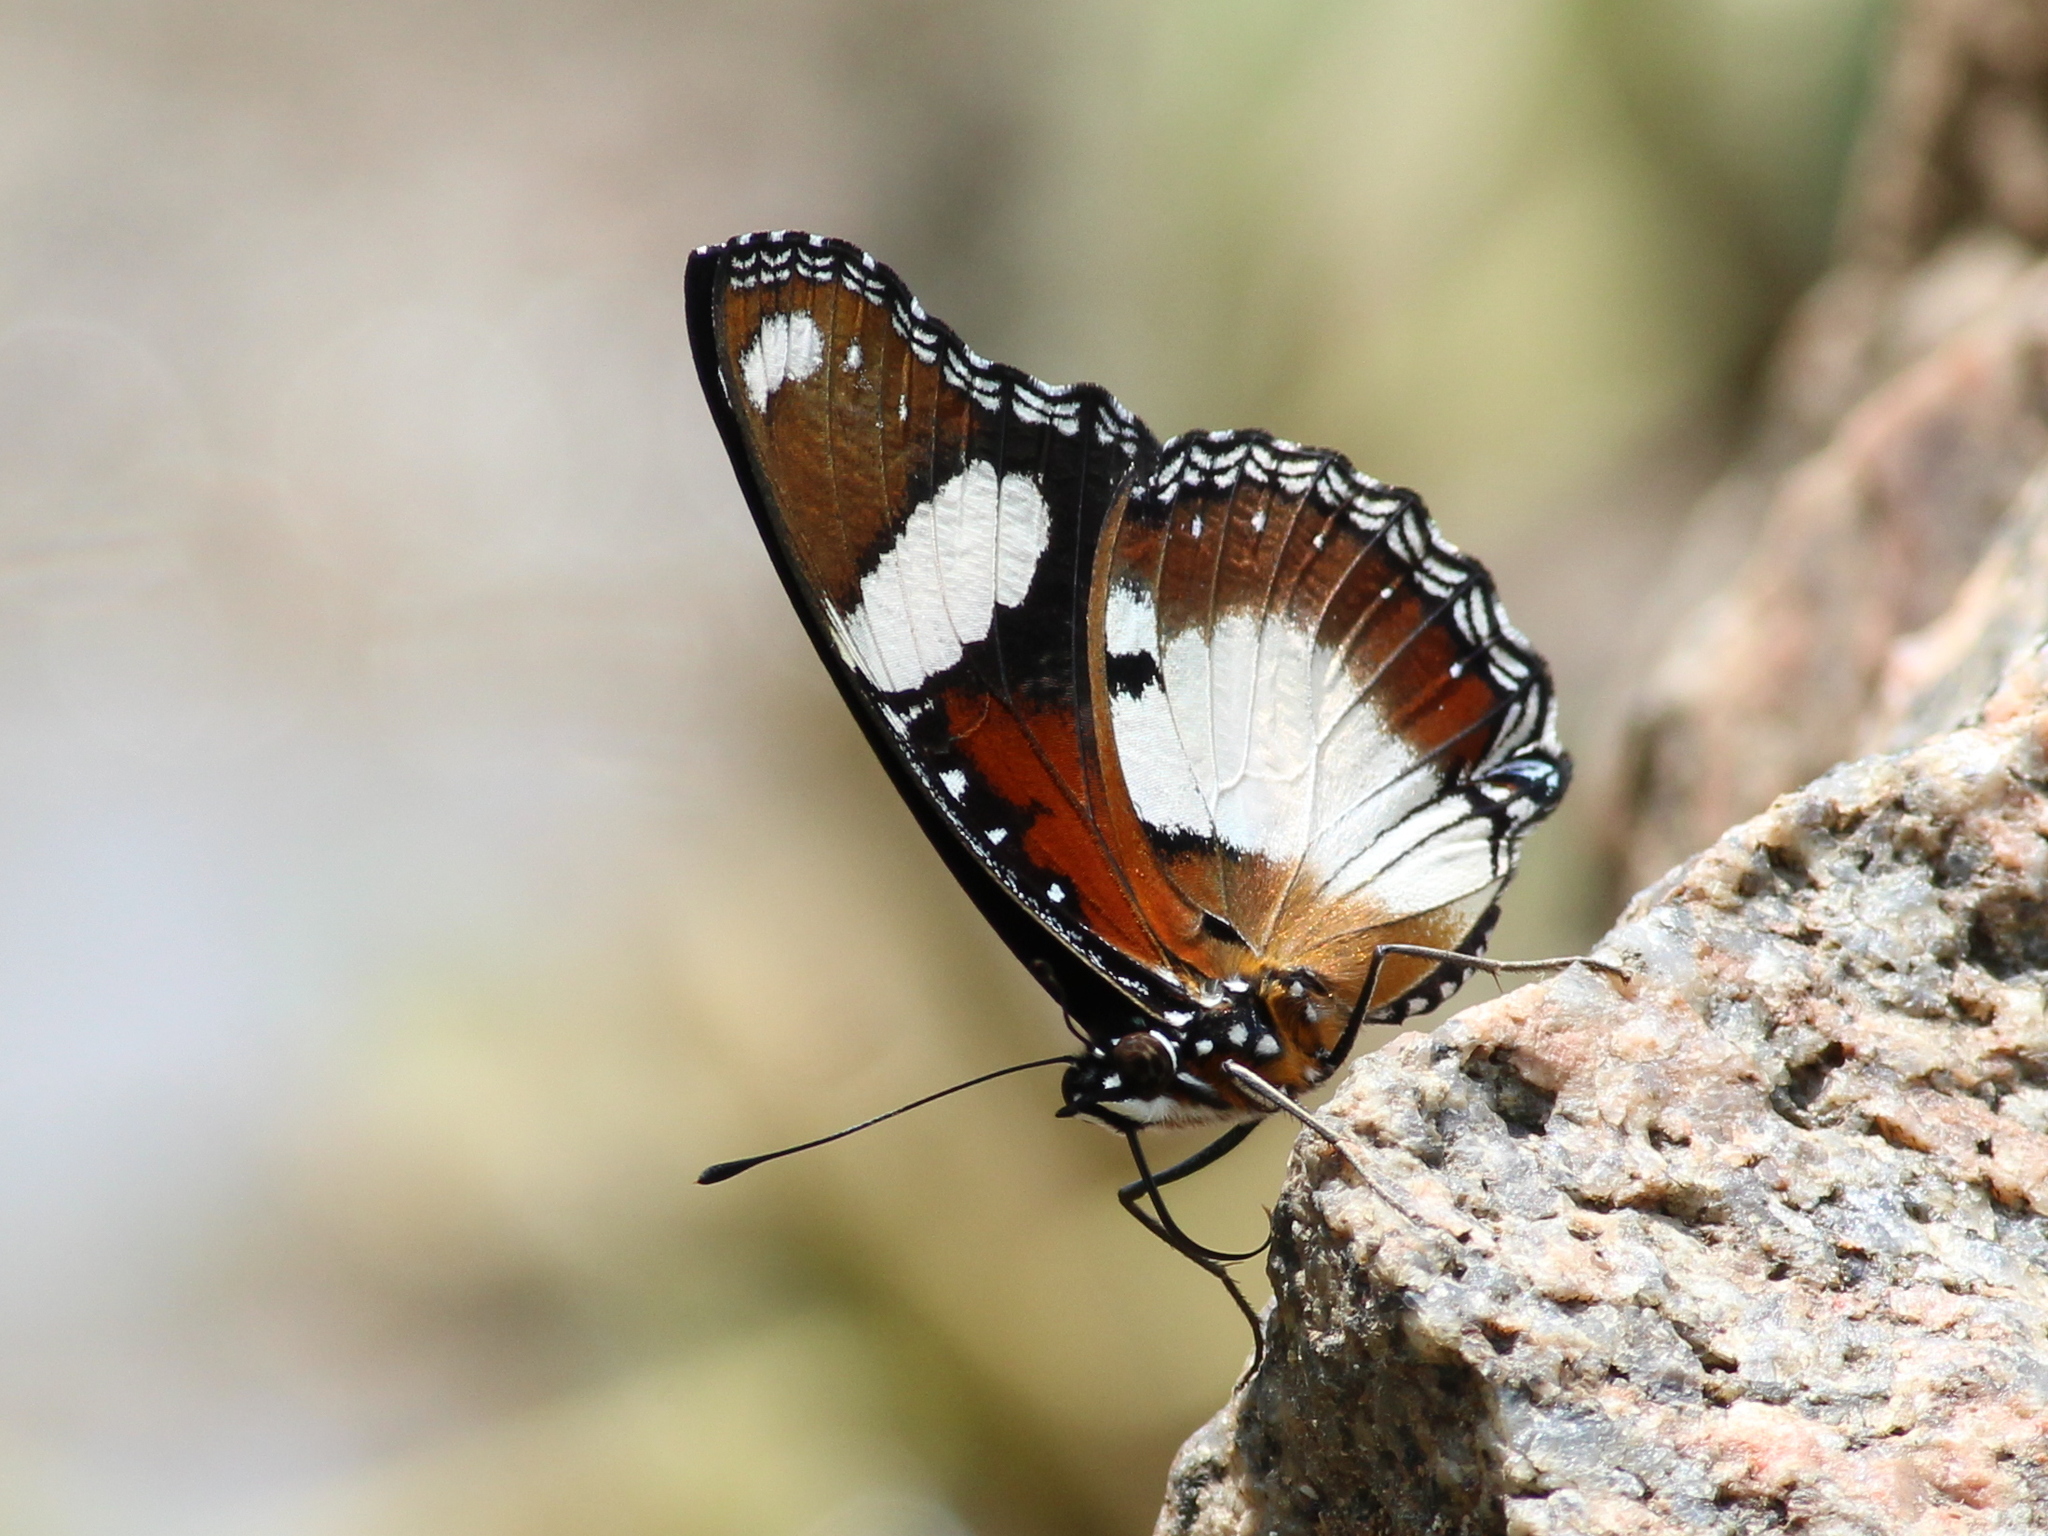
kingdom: Animalia
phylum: Arthropoda
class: Insecta
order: Lepidoptera
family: Nymphalidae
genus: Hypolimnas
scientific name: Hypolimnas misippus
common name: False plain tiger
